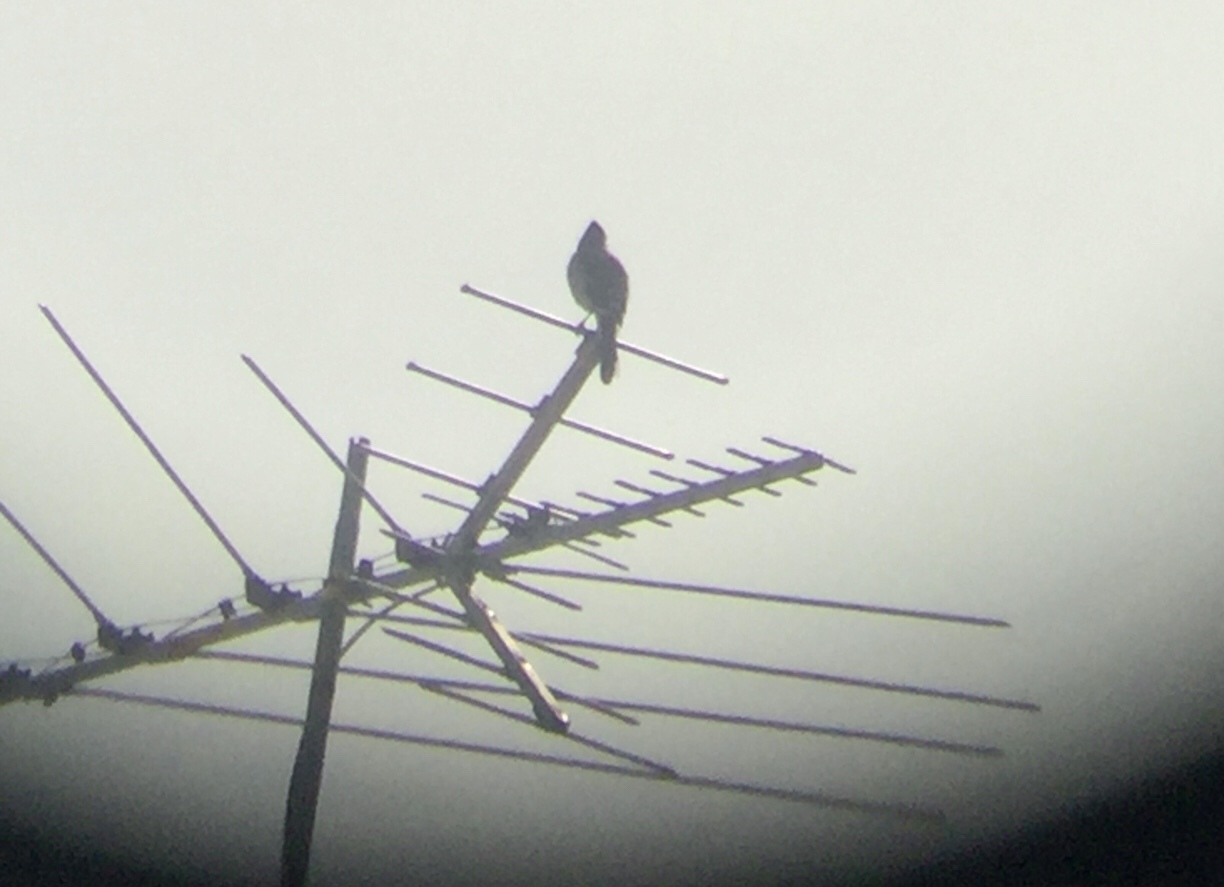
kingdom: Animalia
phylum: Chordata
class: Aves
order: Passeriformes
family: Corvidae
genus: Cyanocitta
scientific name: Cyanocitta cristata
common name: Blue jay
